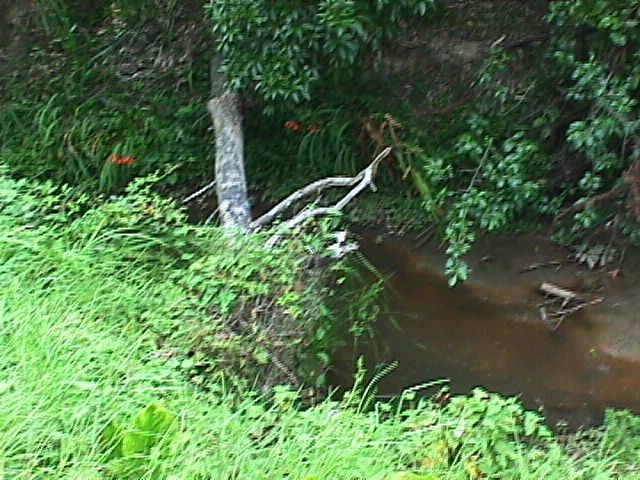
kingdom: Plantae
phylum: Tracheophyta
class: Liliopsida
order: Asparagales
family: Iridaceae
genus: Crocosmia
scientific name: Crocosmia crocosmiiflora
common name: Montbretia
